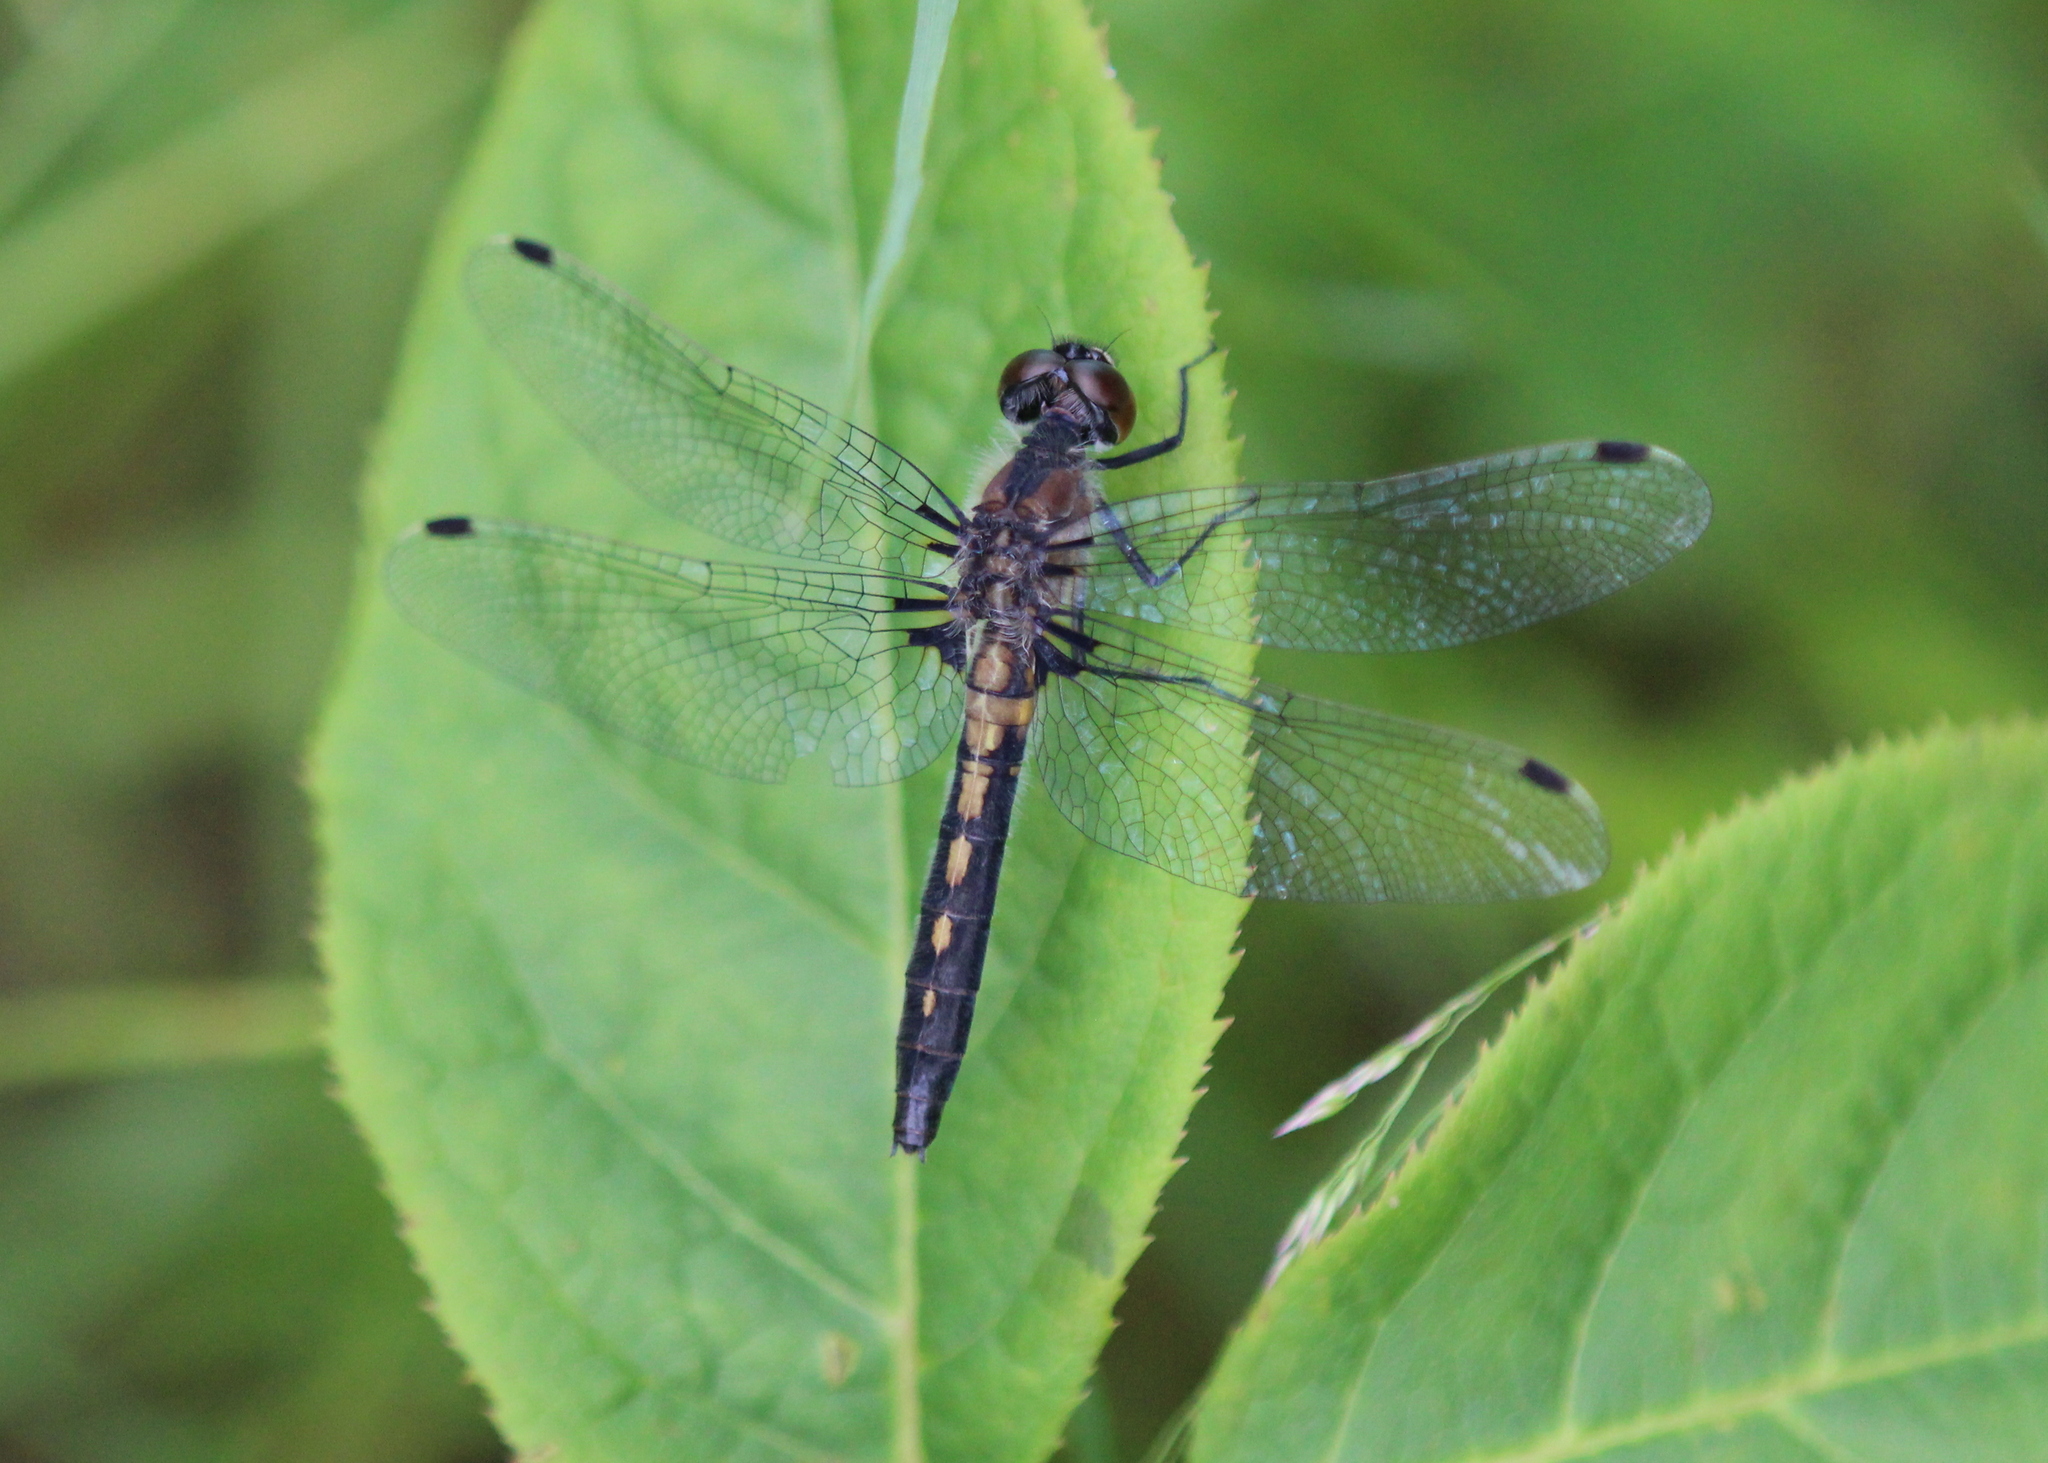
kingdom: Animalia
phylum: Arthropoda
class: Insecta
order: Odonata
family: Libellulidae
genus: Leucorrhinia
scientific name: Leucorrhinia frigida
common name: Frosted whiteface
